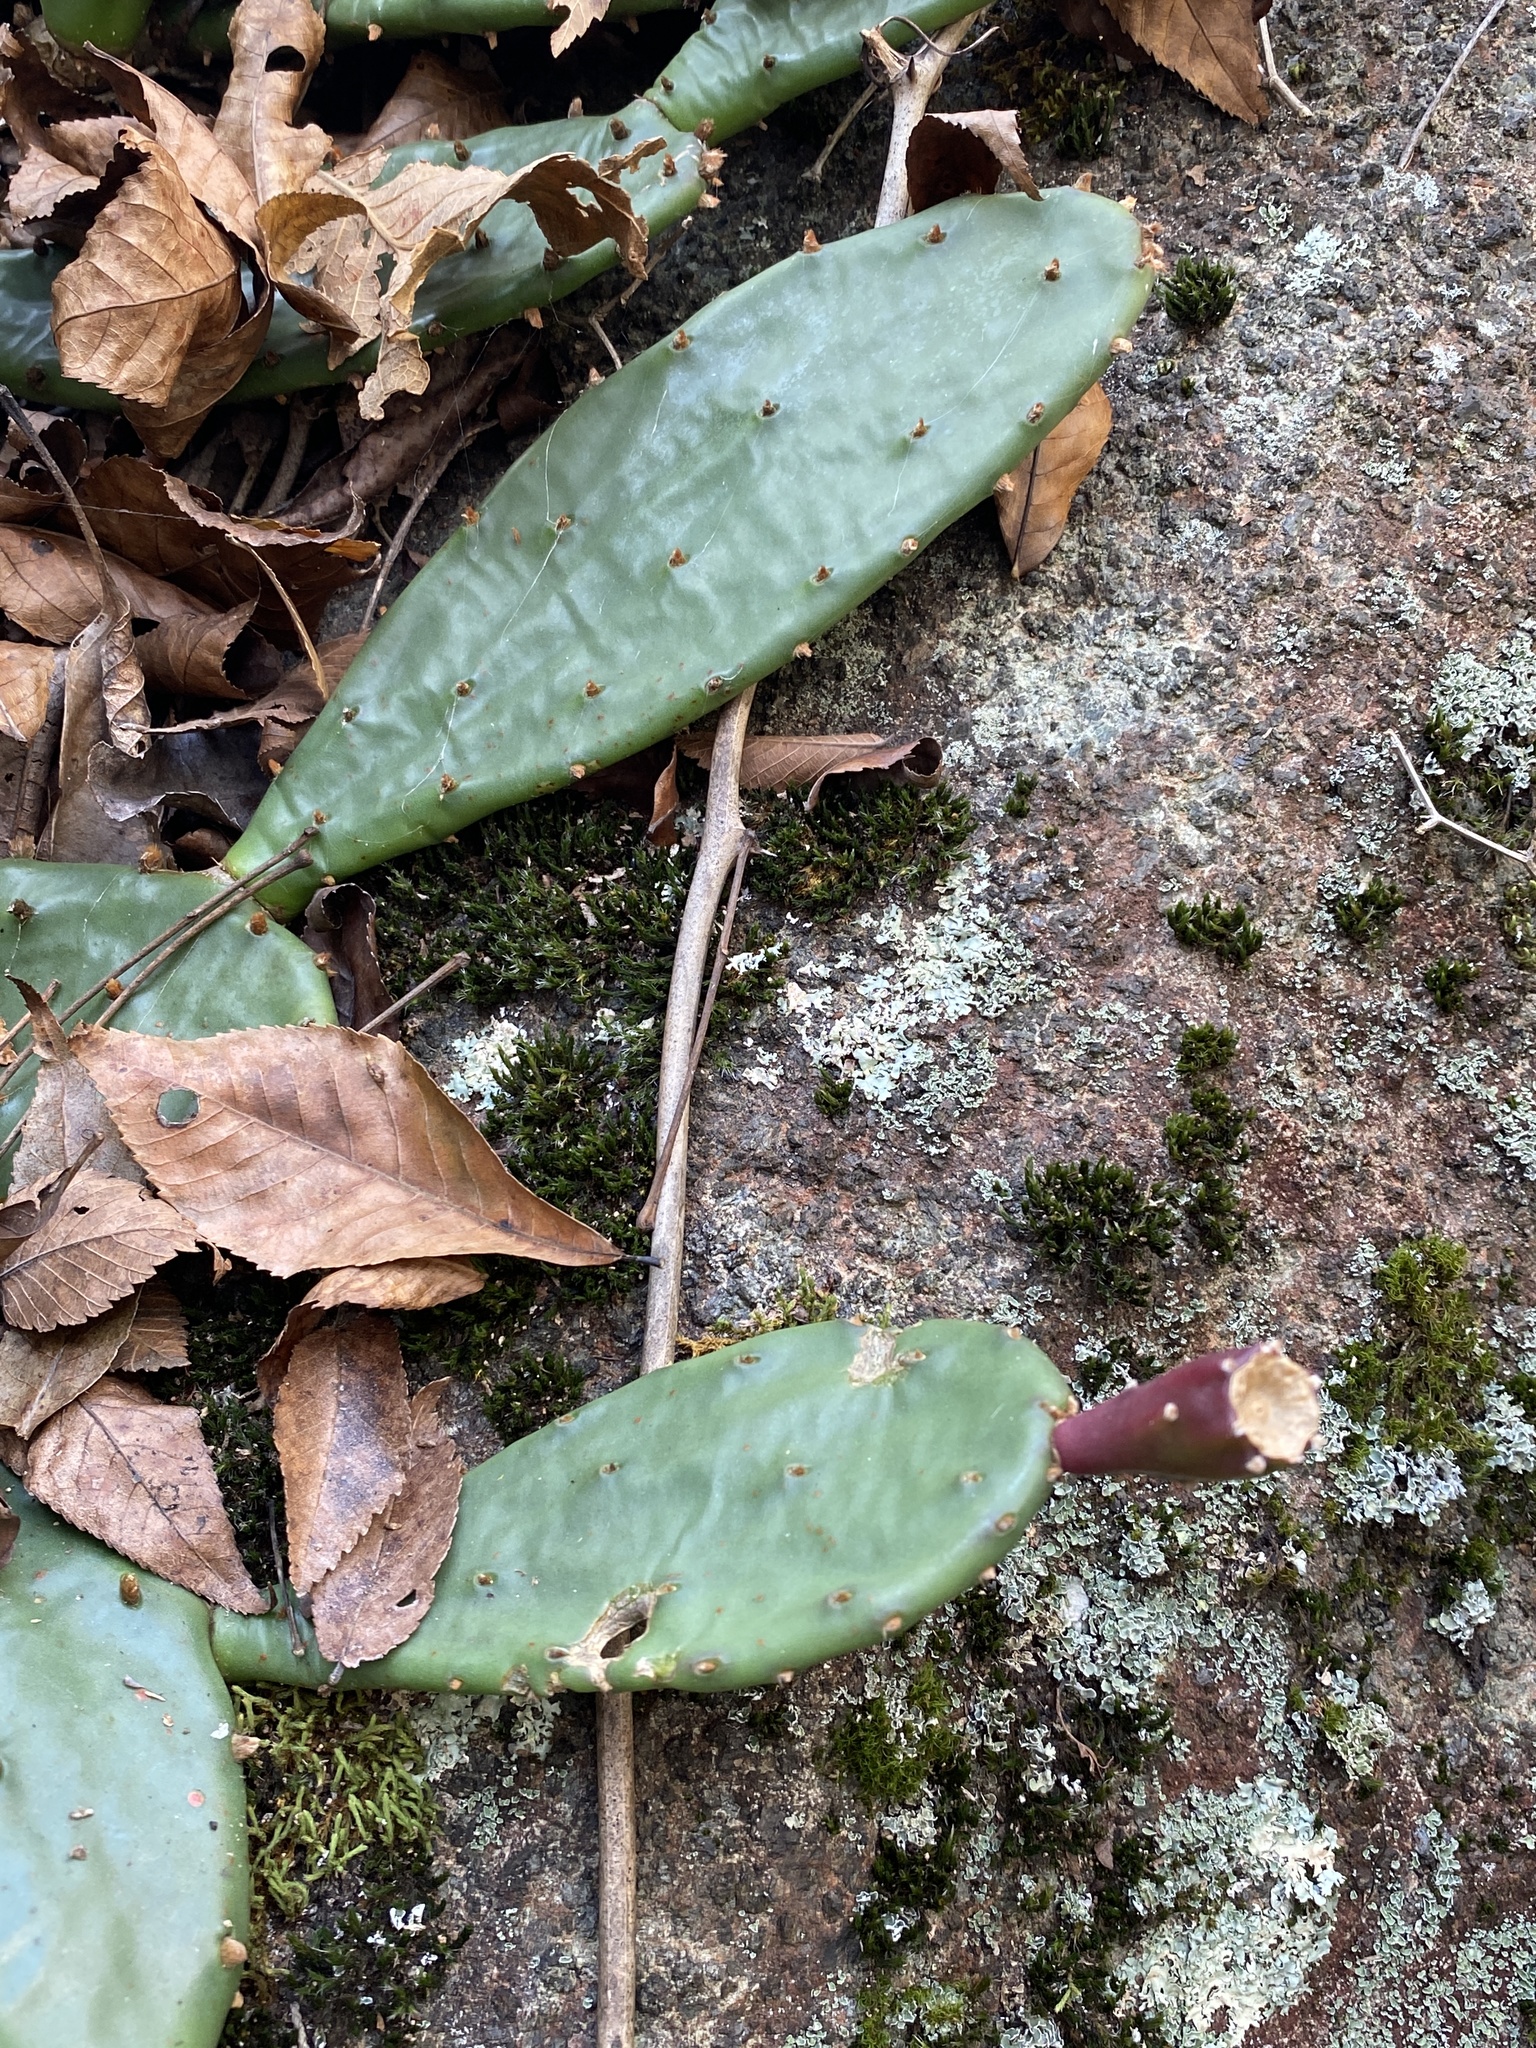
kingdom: Plantae
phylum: Tracheophyta
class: Magnoliopsida
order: Caryophyllales
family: Cactaceae
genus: Opuntia
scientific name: Opuntia mesacantha
